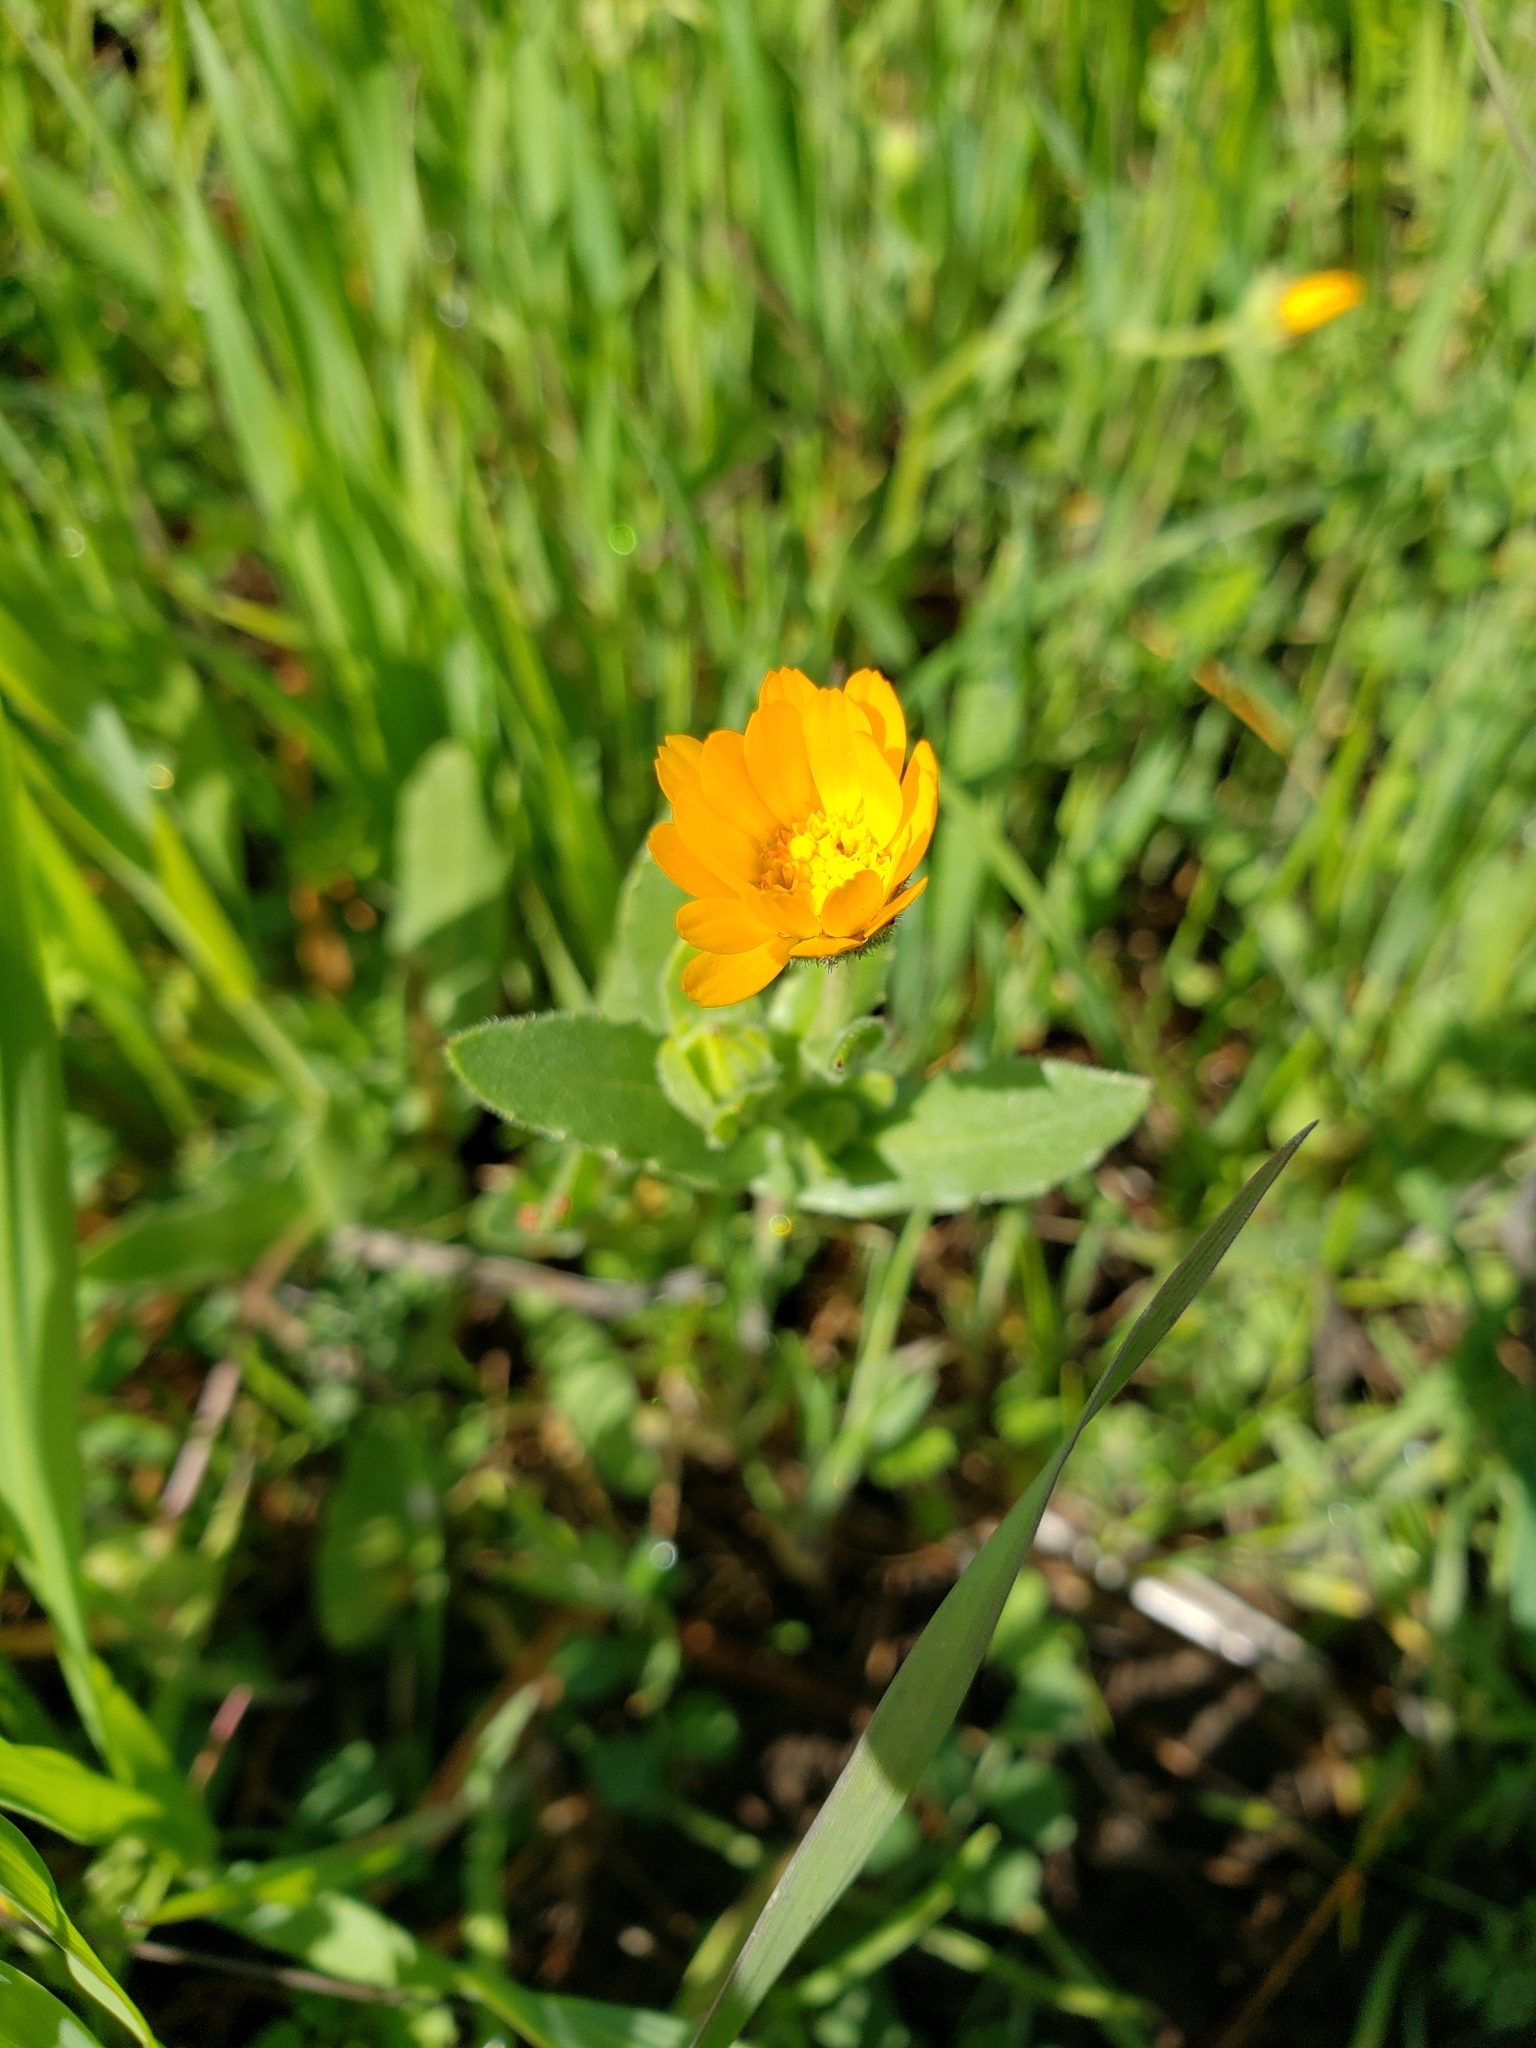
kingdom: Plantae
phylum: Tracheophyta
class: Magnoliopsida
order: Asterales
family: Asteraceae
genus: Calendula
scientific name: Calendula arvensis
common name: Field marigold
